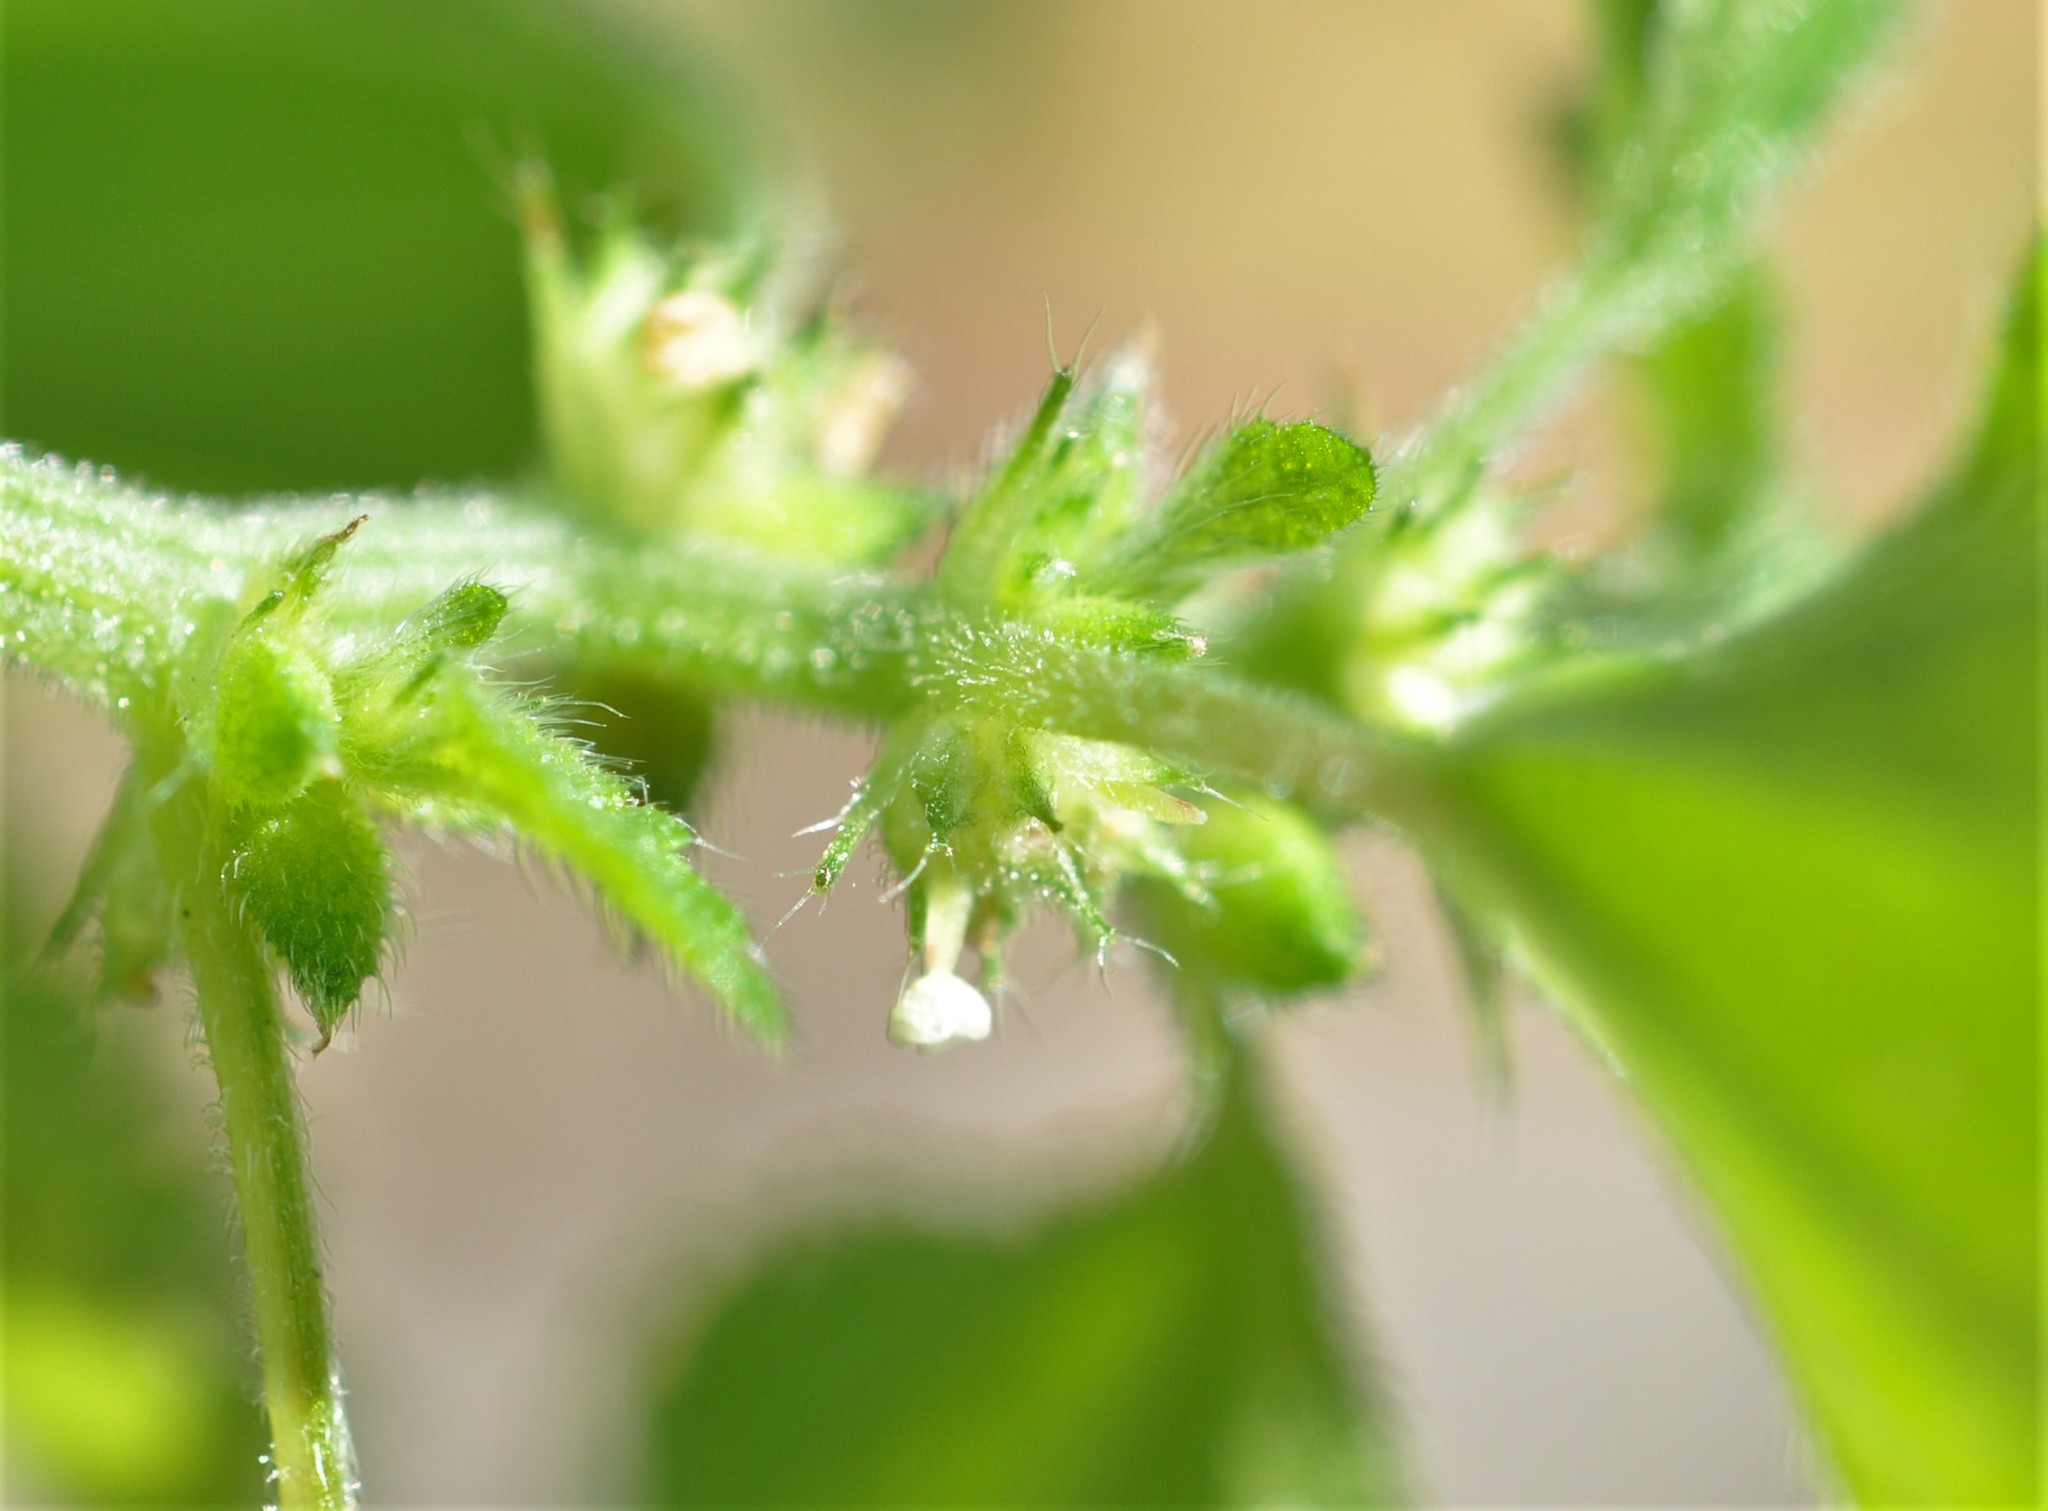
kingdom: Plantae
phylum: Tracheophyta
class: Magnoliopsida
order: Rosales
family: Urticaceae
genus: Didymodoxa
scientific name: Didymodoxa capensis
